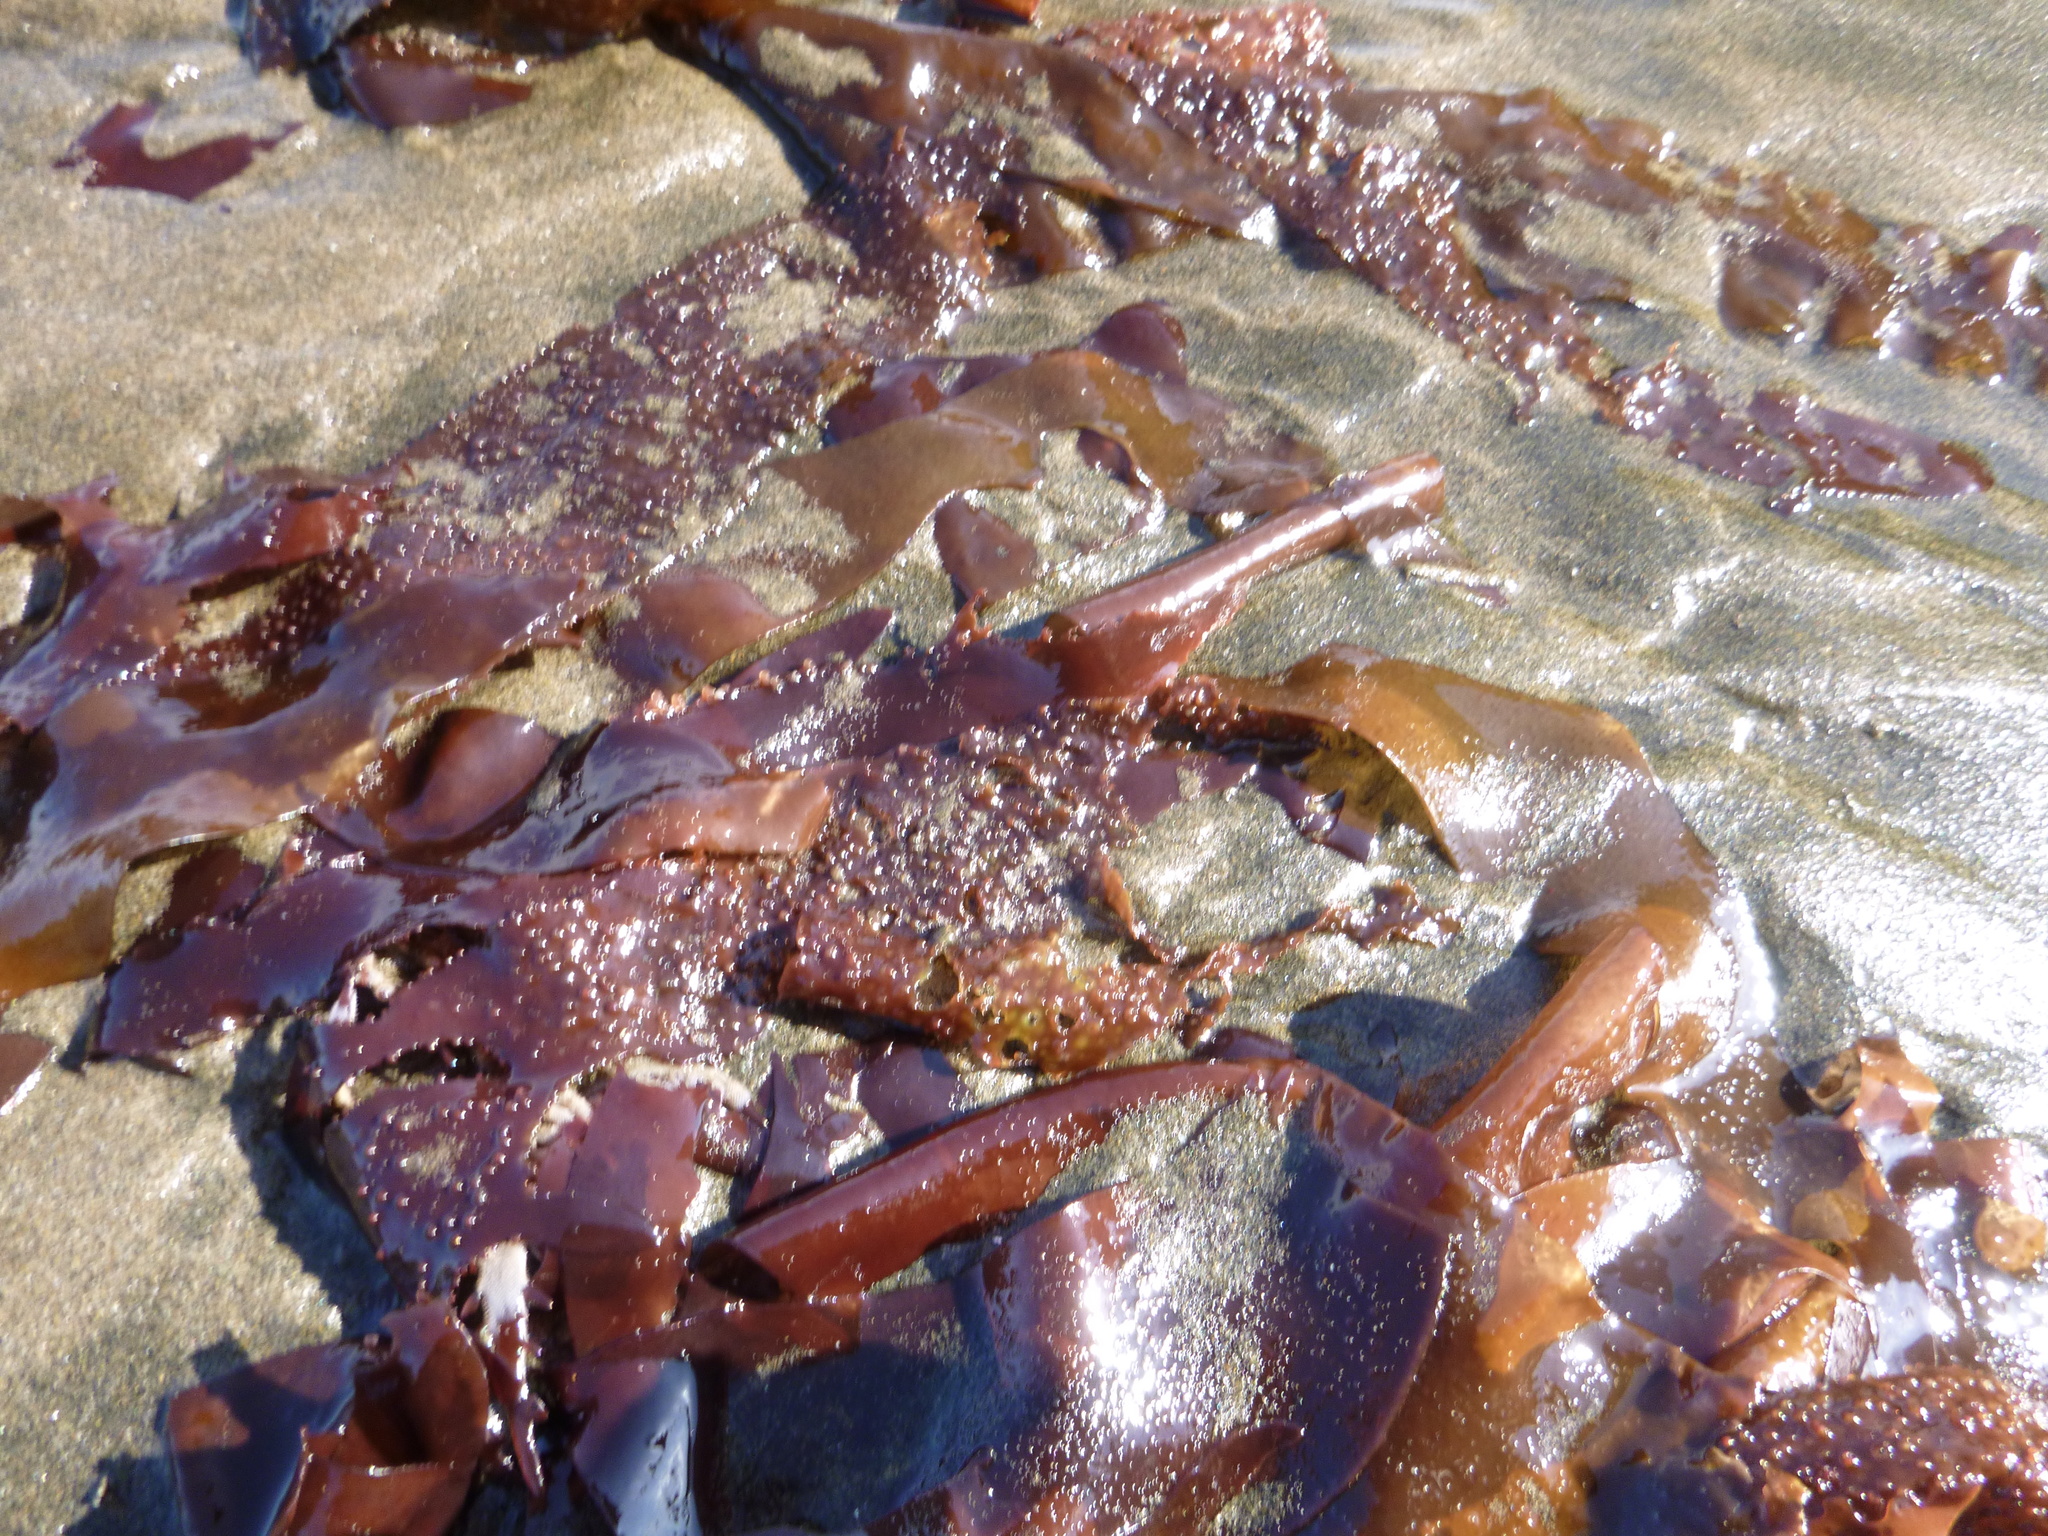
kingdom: Plantae
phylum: Rhodophyta
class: Florideophyceae
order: Gigartinales
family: Gigartinaceae
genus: Sarcothalia
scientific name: Sarcothalia
